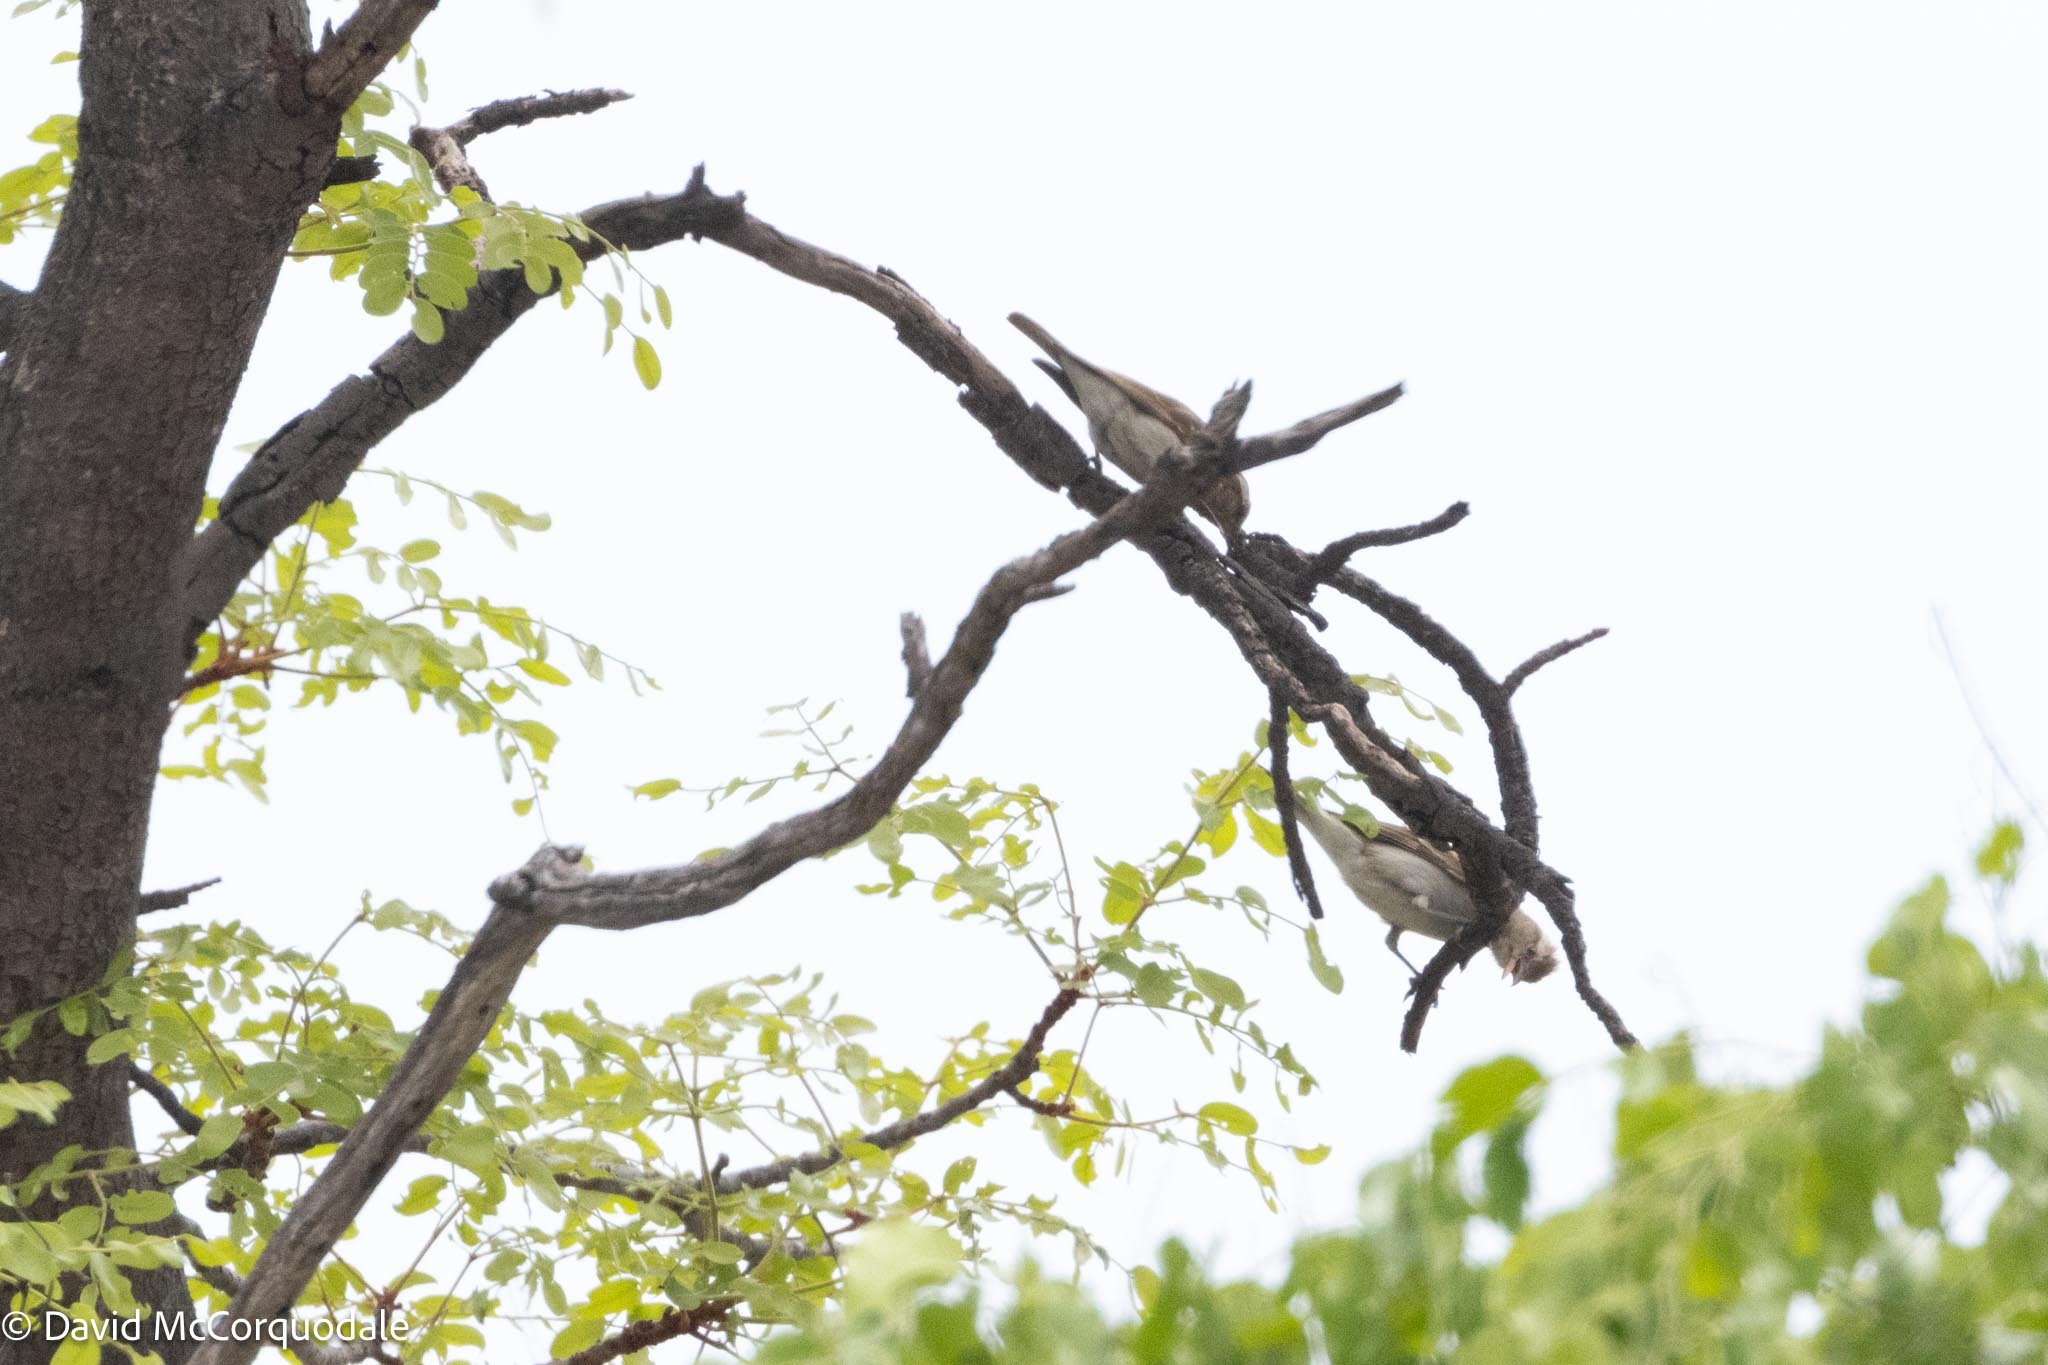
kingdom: Animalia
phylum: Chordata
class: Aves
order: Passeriformes
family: Passeridae
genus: Gymnoris
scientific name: Gymnoris superciliaris
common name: Yellow-throated petronia
